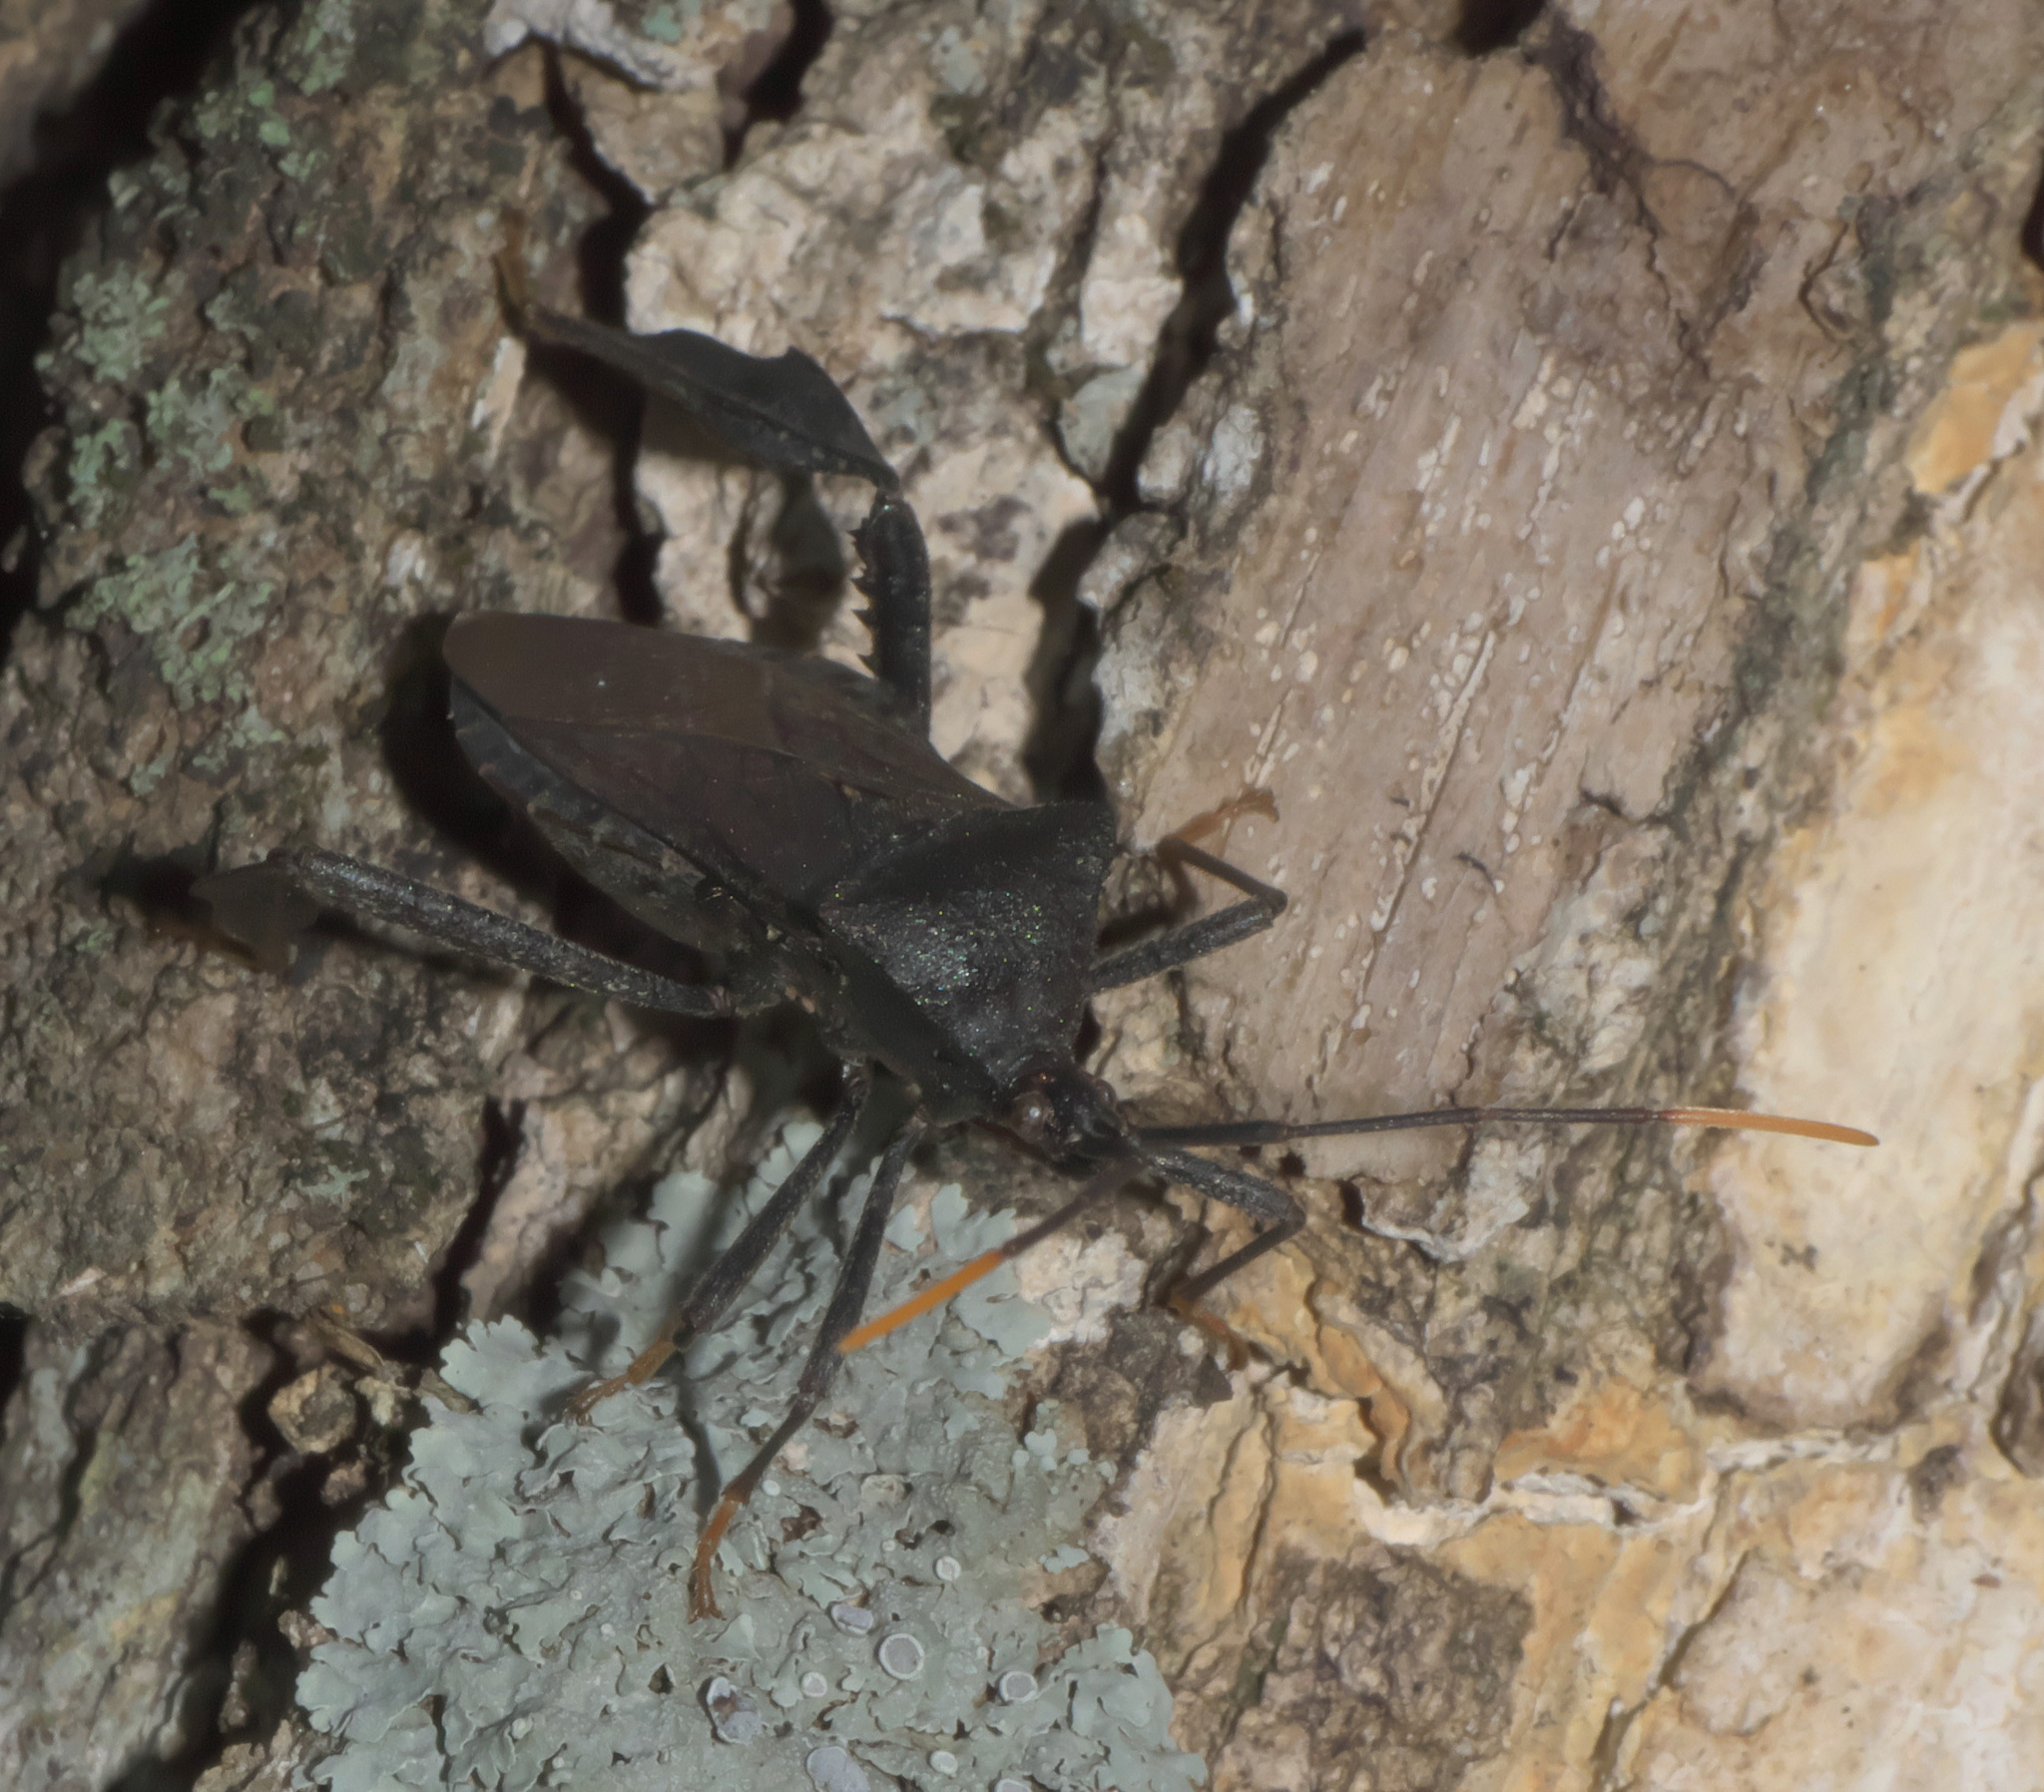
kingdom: Animalia
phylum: Arthropoda
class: Insecta
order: Hemiptera
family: Coreidae
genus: Acanthocephala
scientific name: Acanthocephala terminalis
